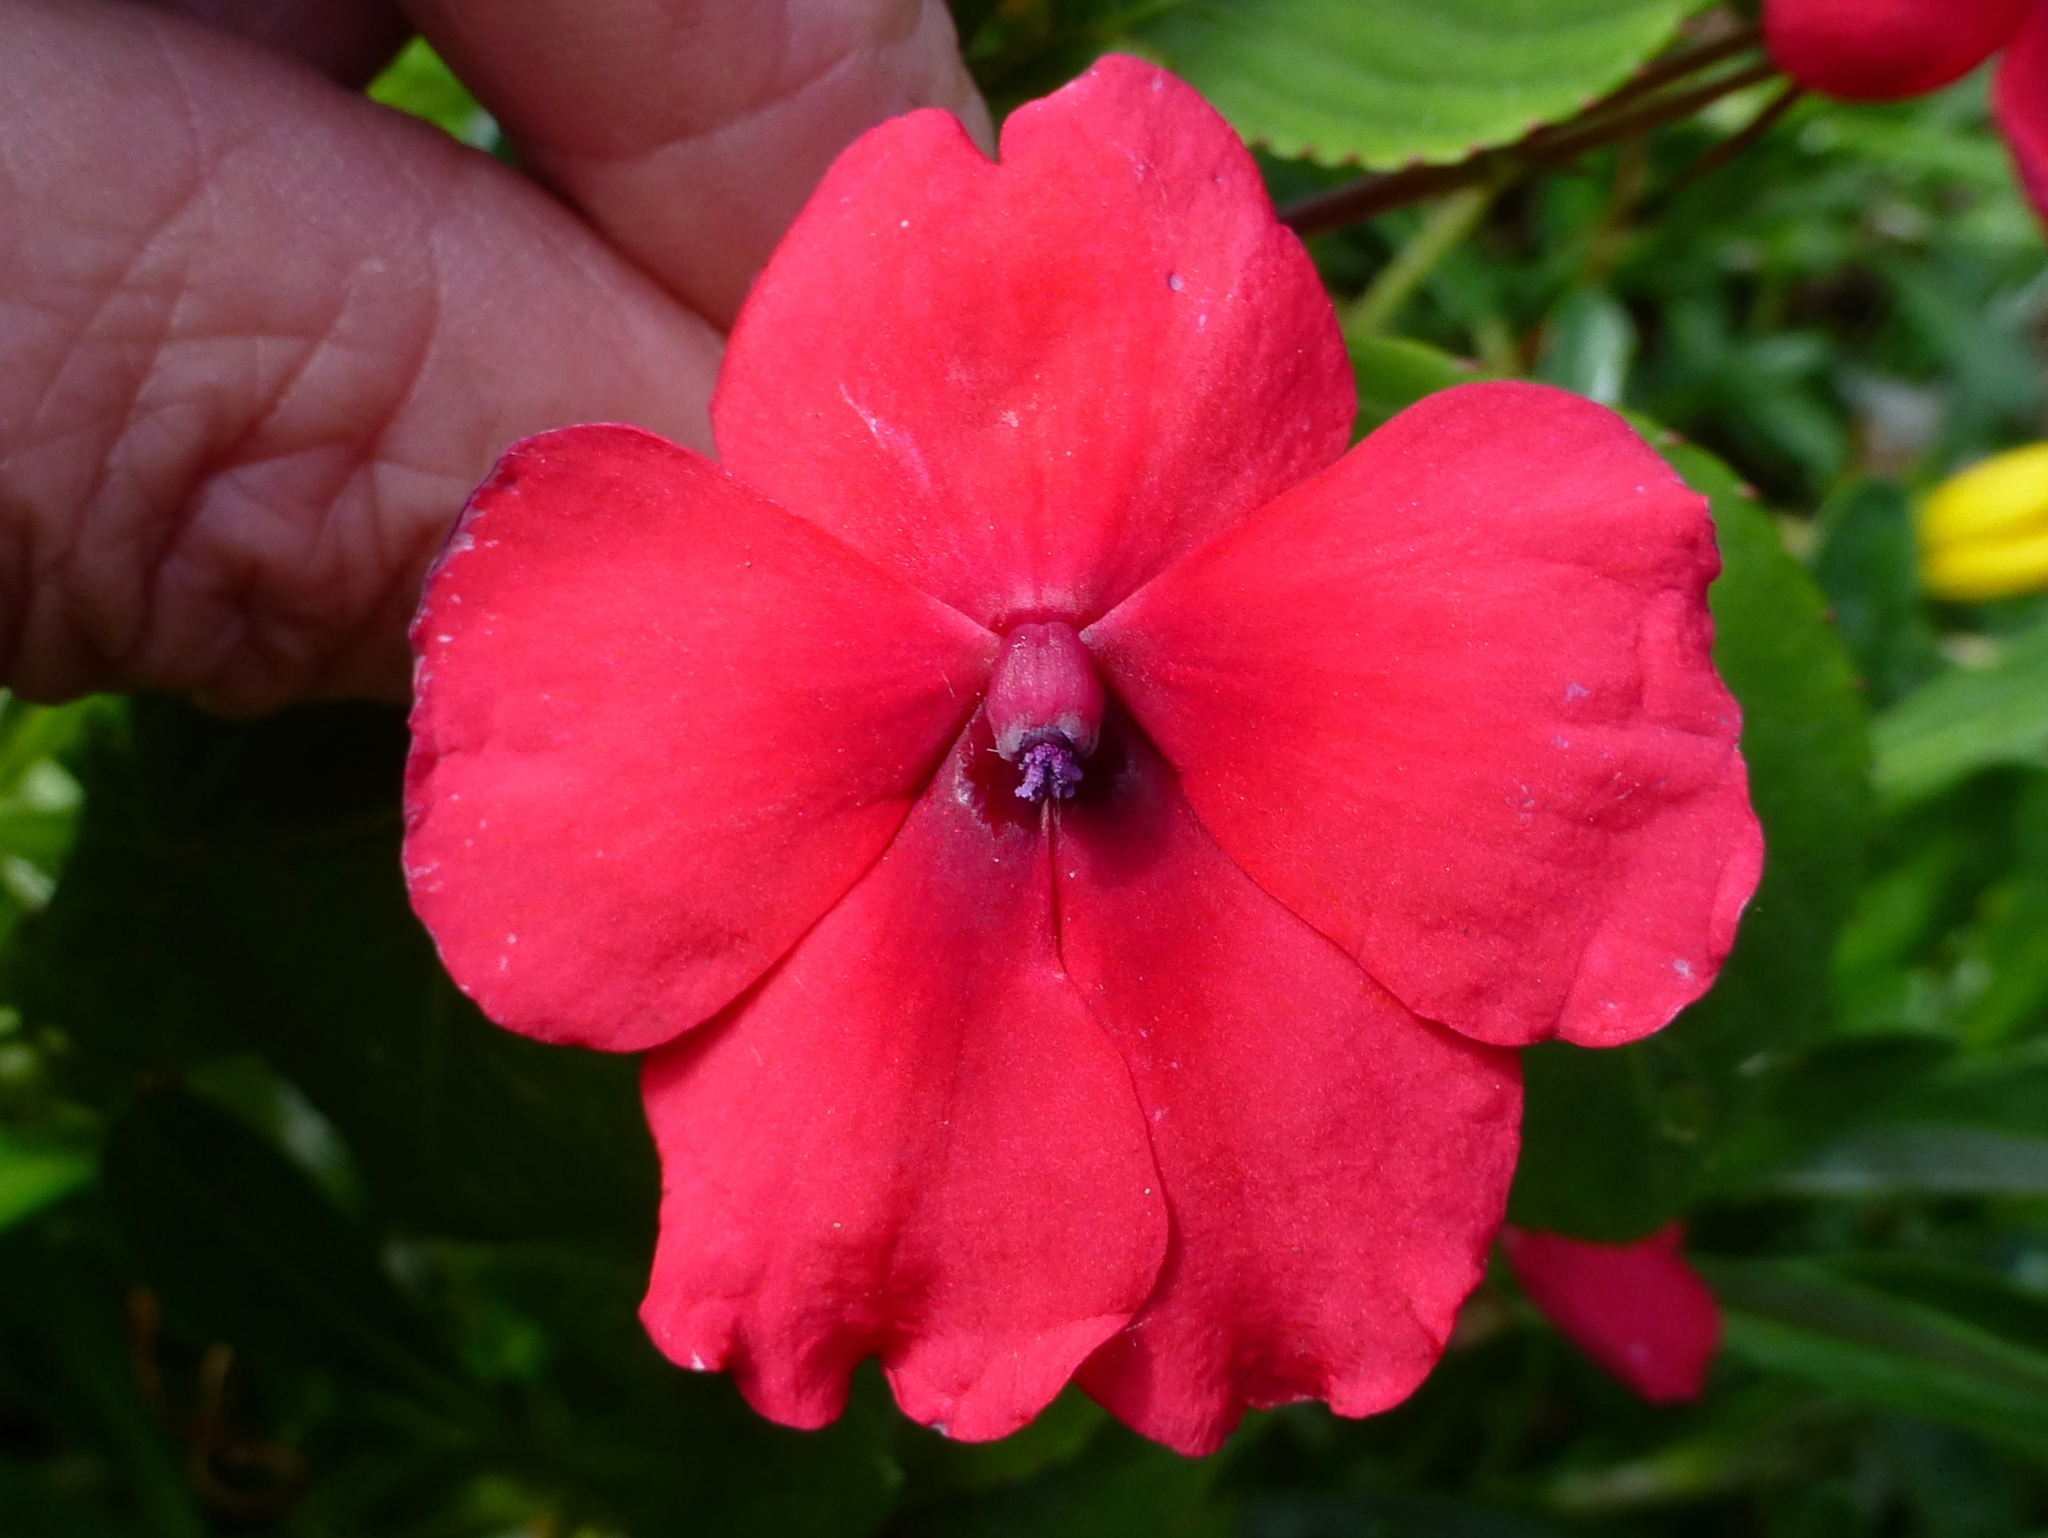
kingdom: Plantae
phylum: Tracheophyta
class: Magnoliopsida
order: Ericales
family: Balsaminaceae
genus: Impatiens
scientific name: Impatiens walleriana
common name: Buzzy lizzy
